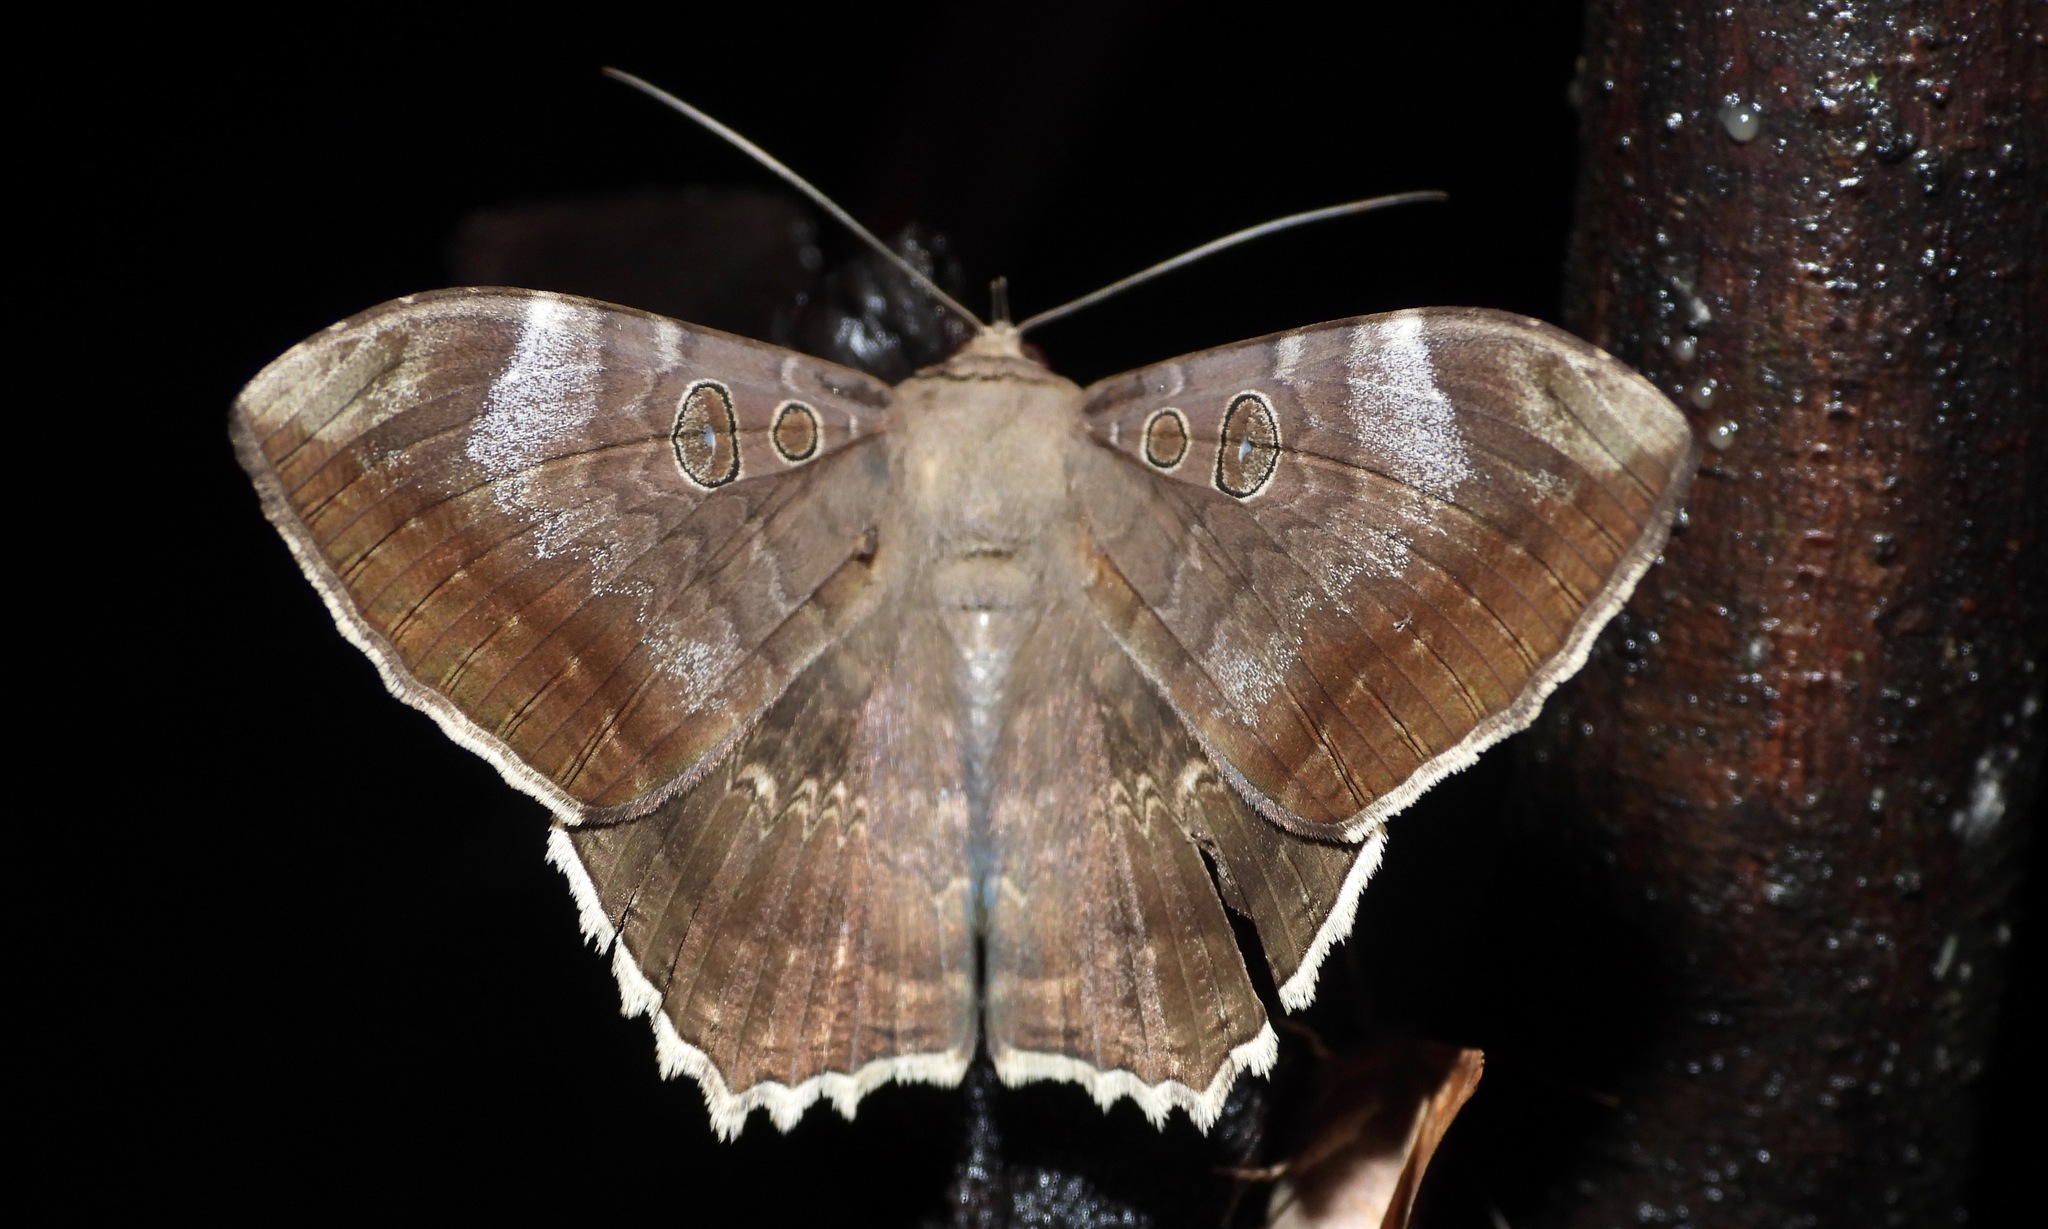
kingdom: Animalia
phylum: Arthropoda
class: Insecta
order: Lepidoptera
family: Erebidae
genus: Cyclopis
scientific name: Cyclopis caecutiens
